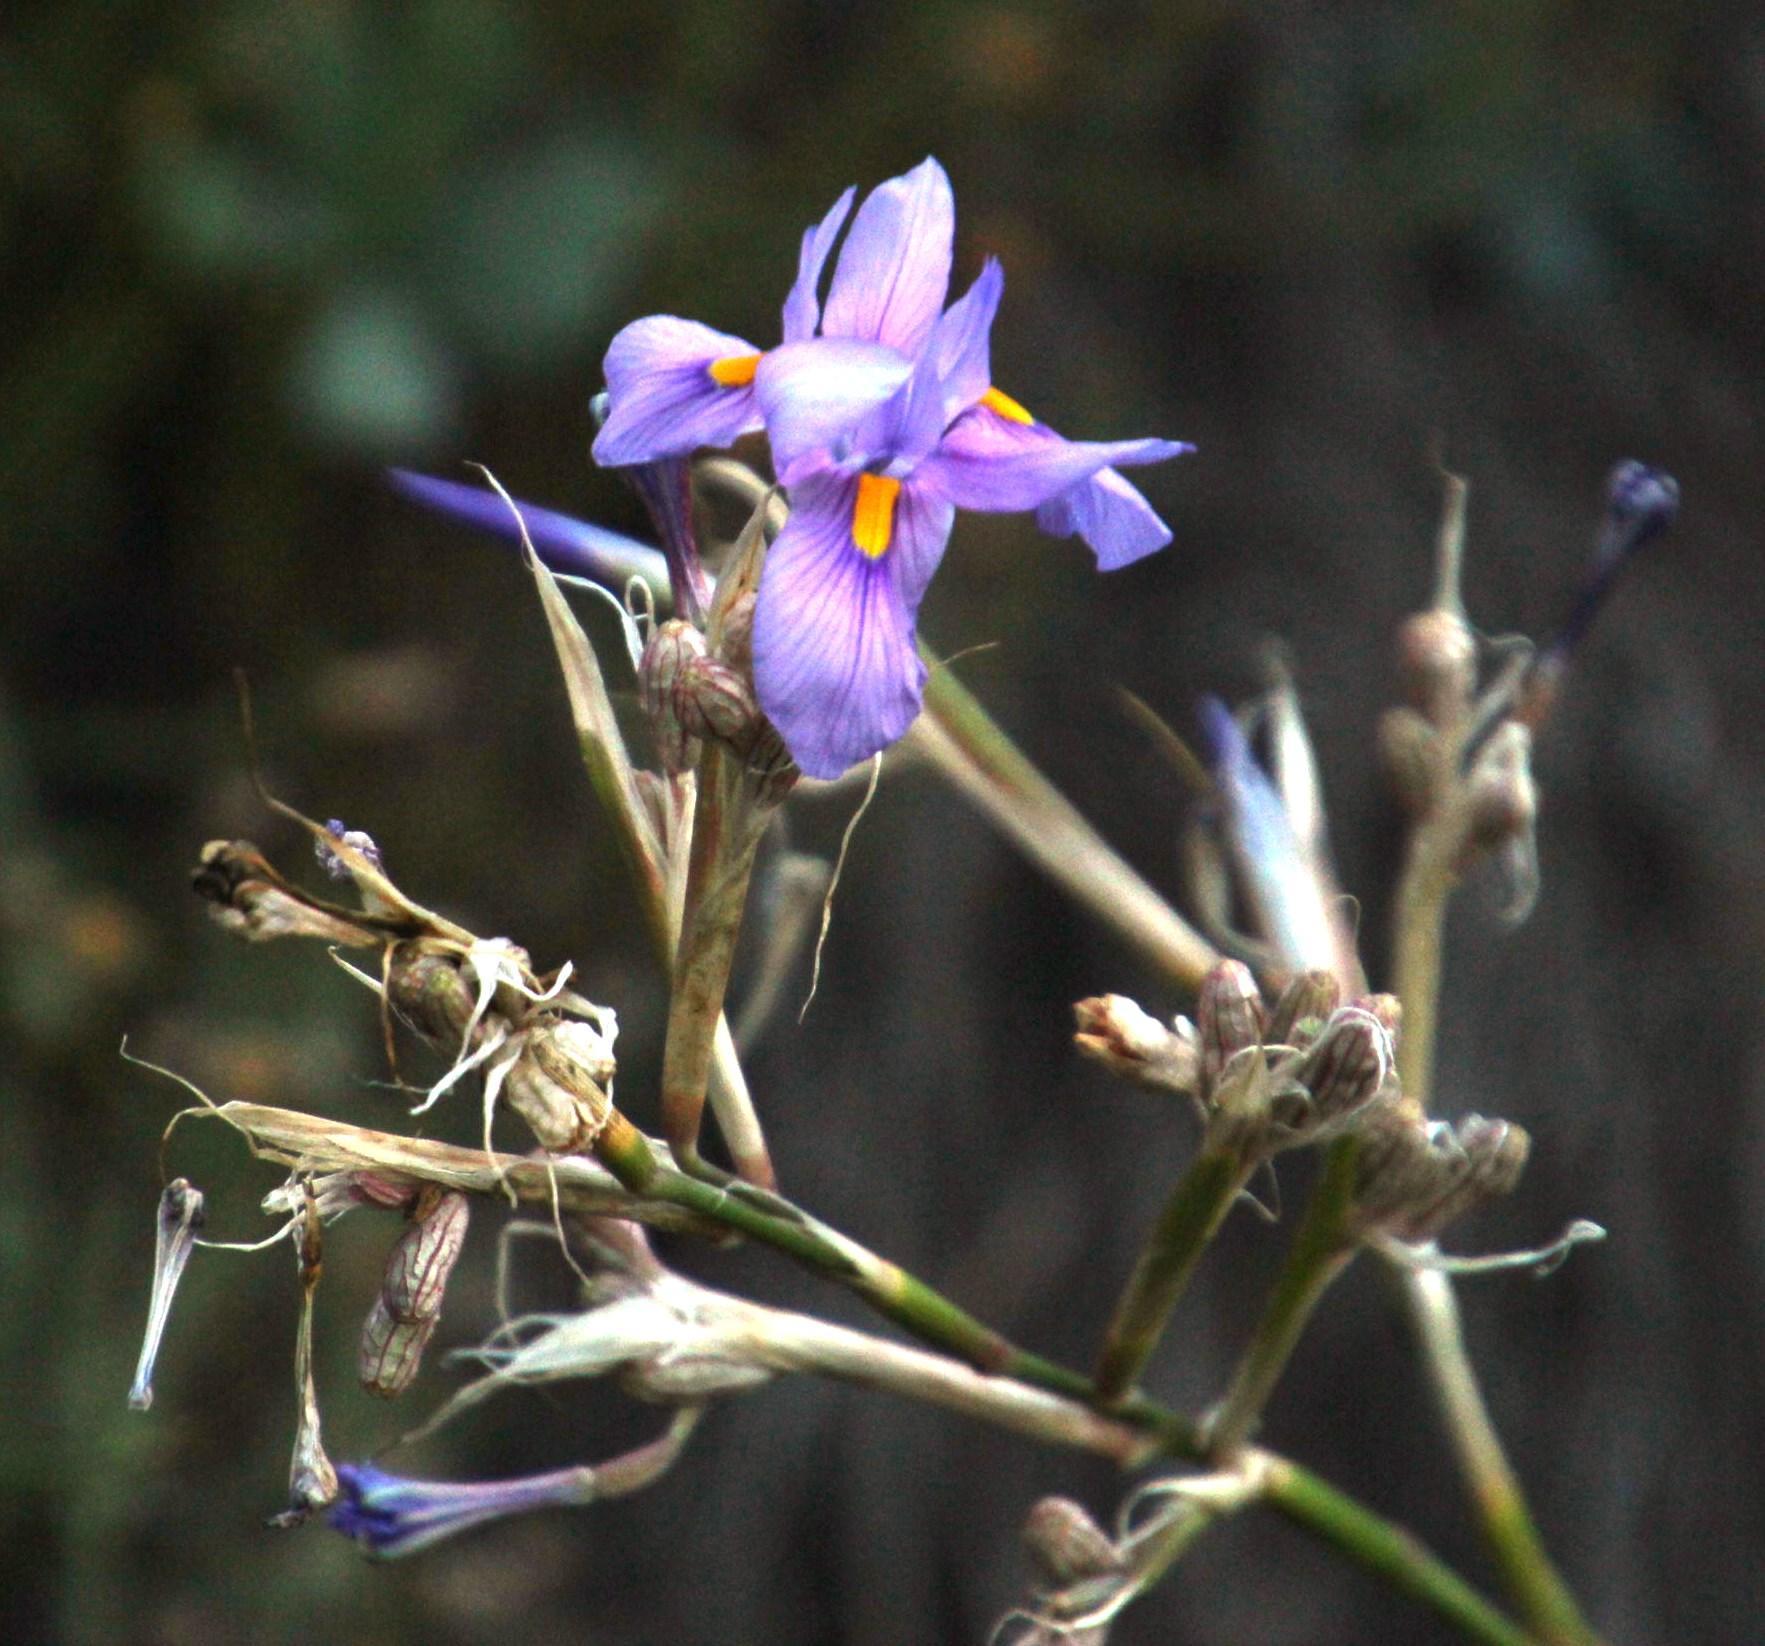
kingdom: Plantae
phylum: Tracheophyta
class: Liliopsida
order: Asparagales
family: Iridaceae
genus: Moraea
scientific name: Moraea polystachya
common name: Blue-tulip
